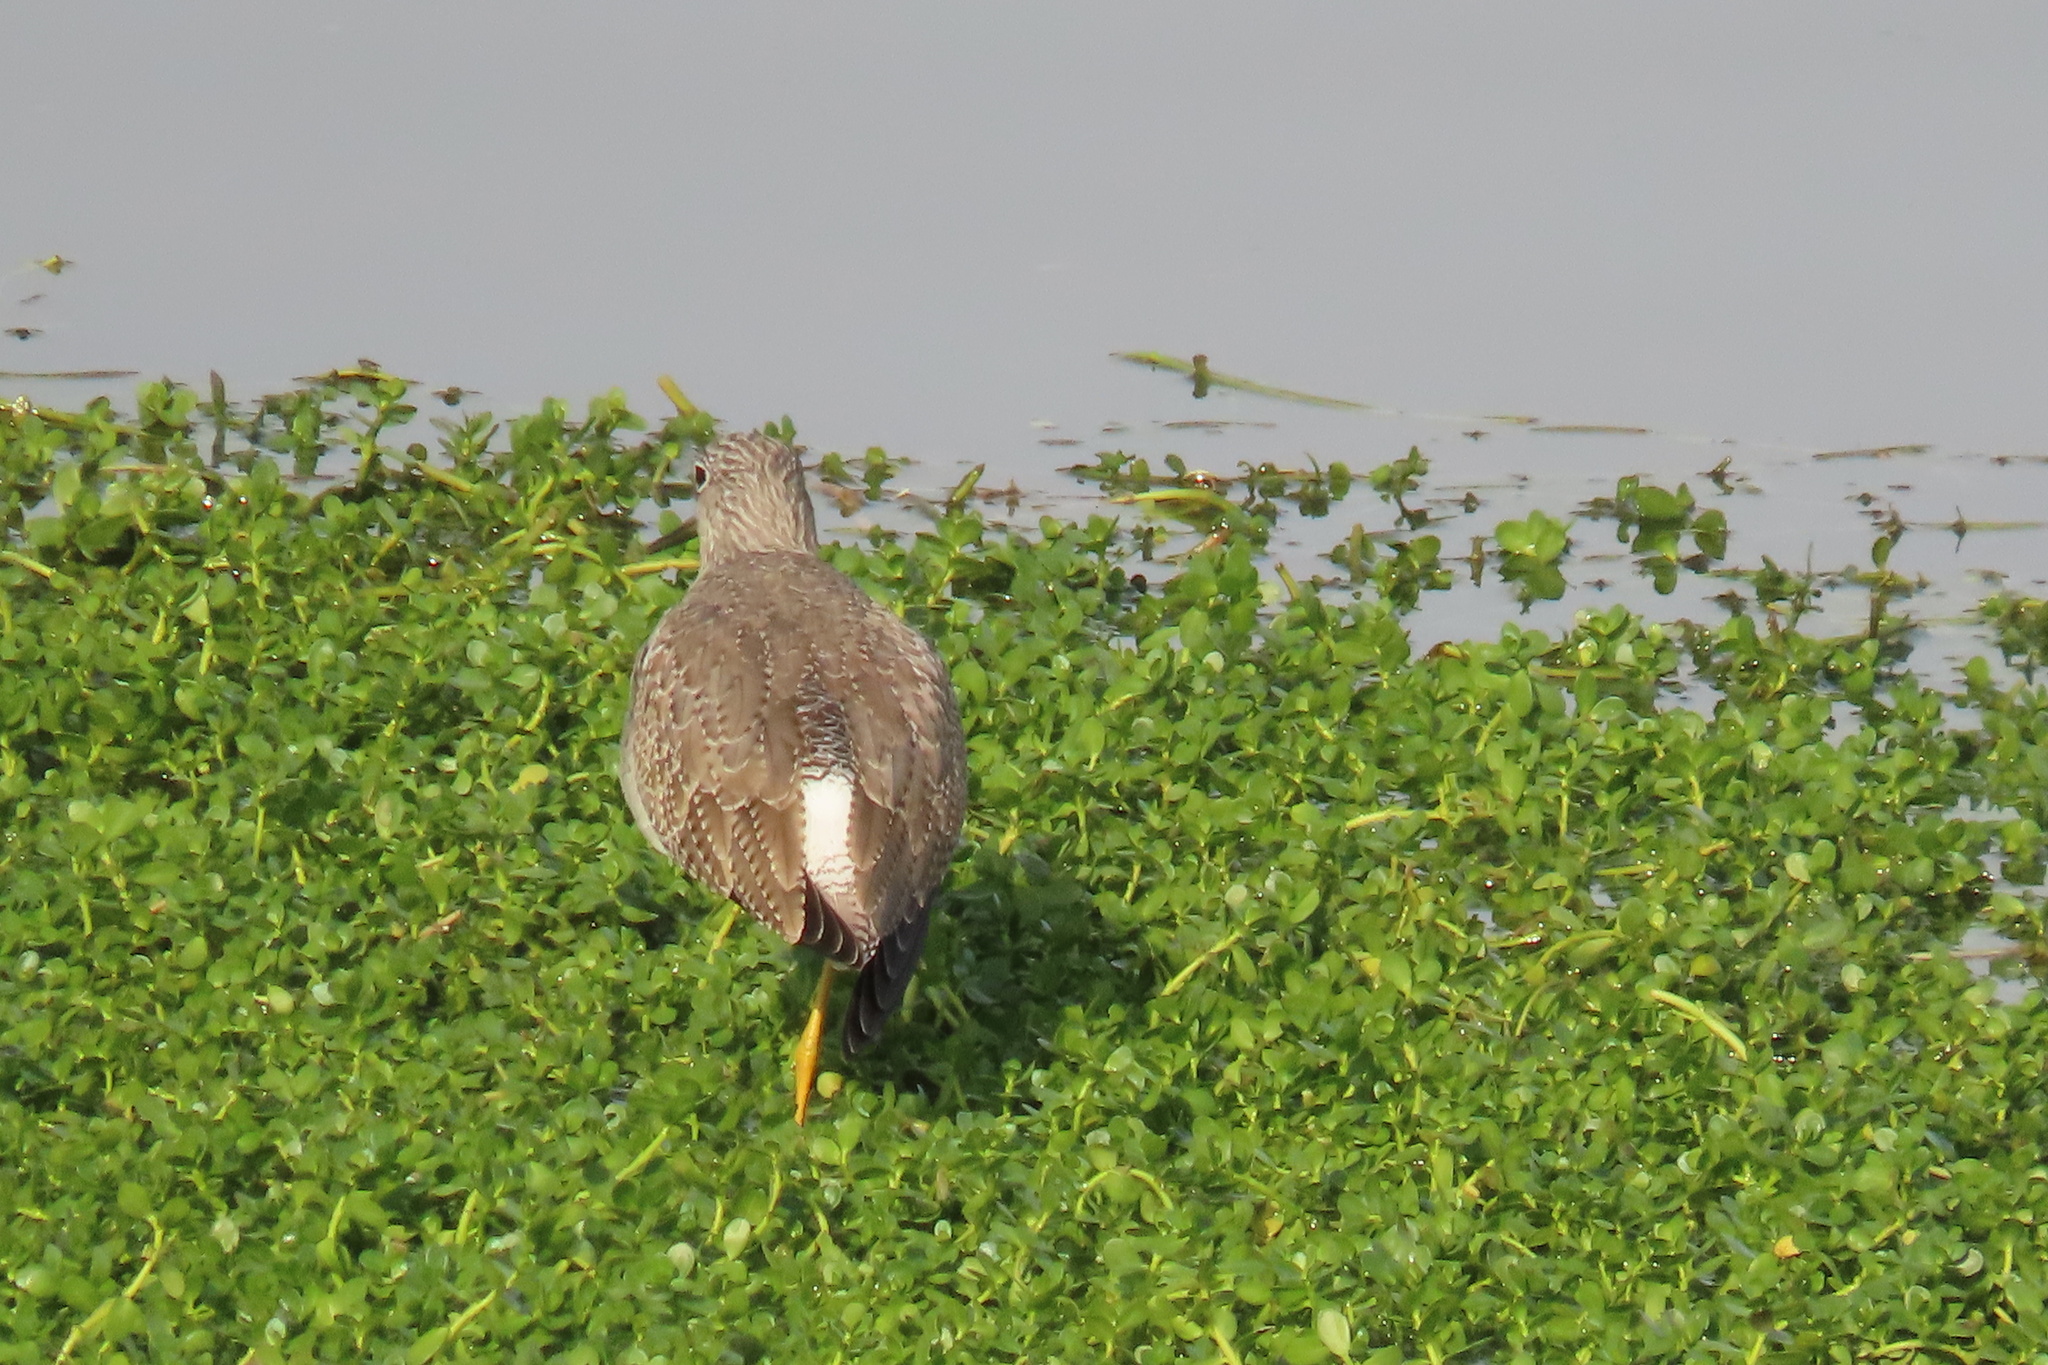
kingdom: Animalia
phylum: Chordata
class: Aves
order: Charadriiformes
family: Scolopacidae
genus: Tringa
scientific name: Tringa melanoleuca
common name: Greater yellowlegs
